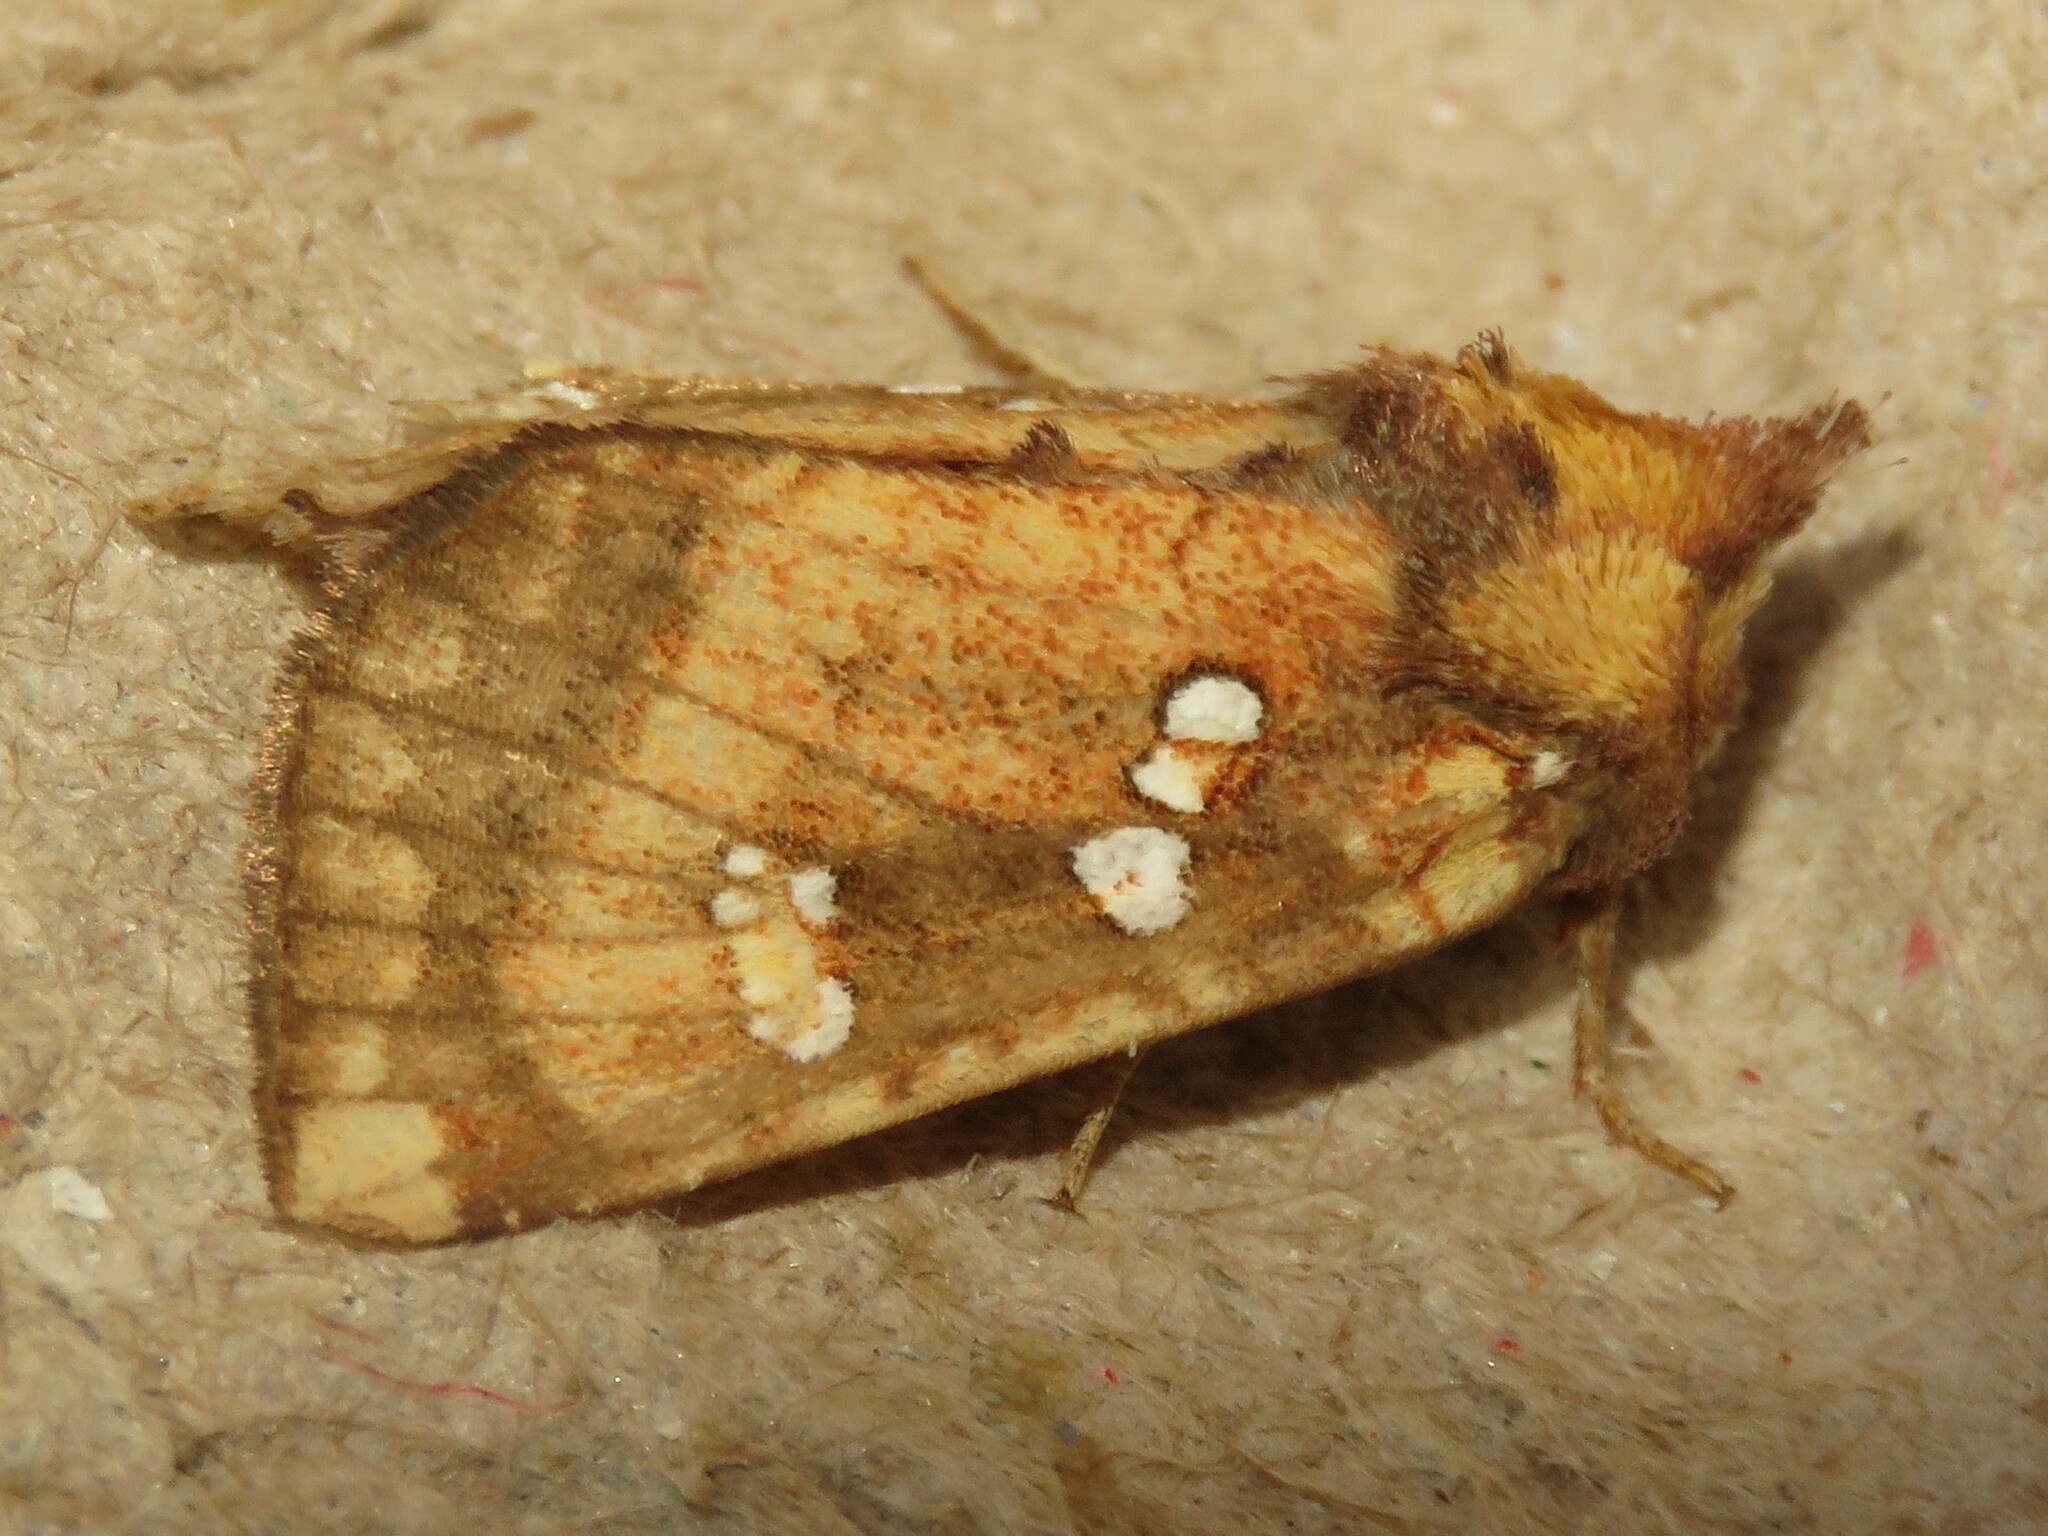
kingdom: Animalia
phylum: Arthropoda
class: Insecta
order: Lepidoptera
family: Noctuidae
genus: Papaipema
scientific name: Papaipema arctivorens
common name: Northern burdock borer moth
